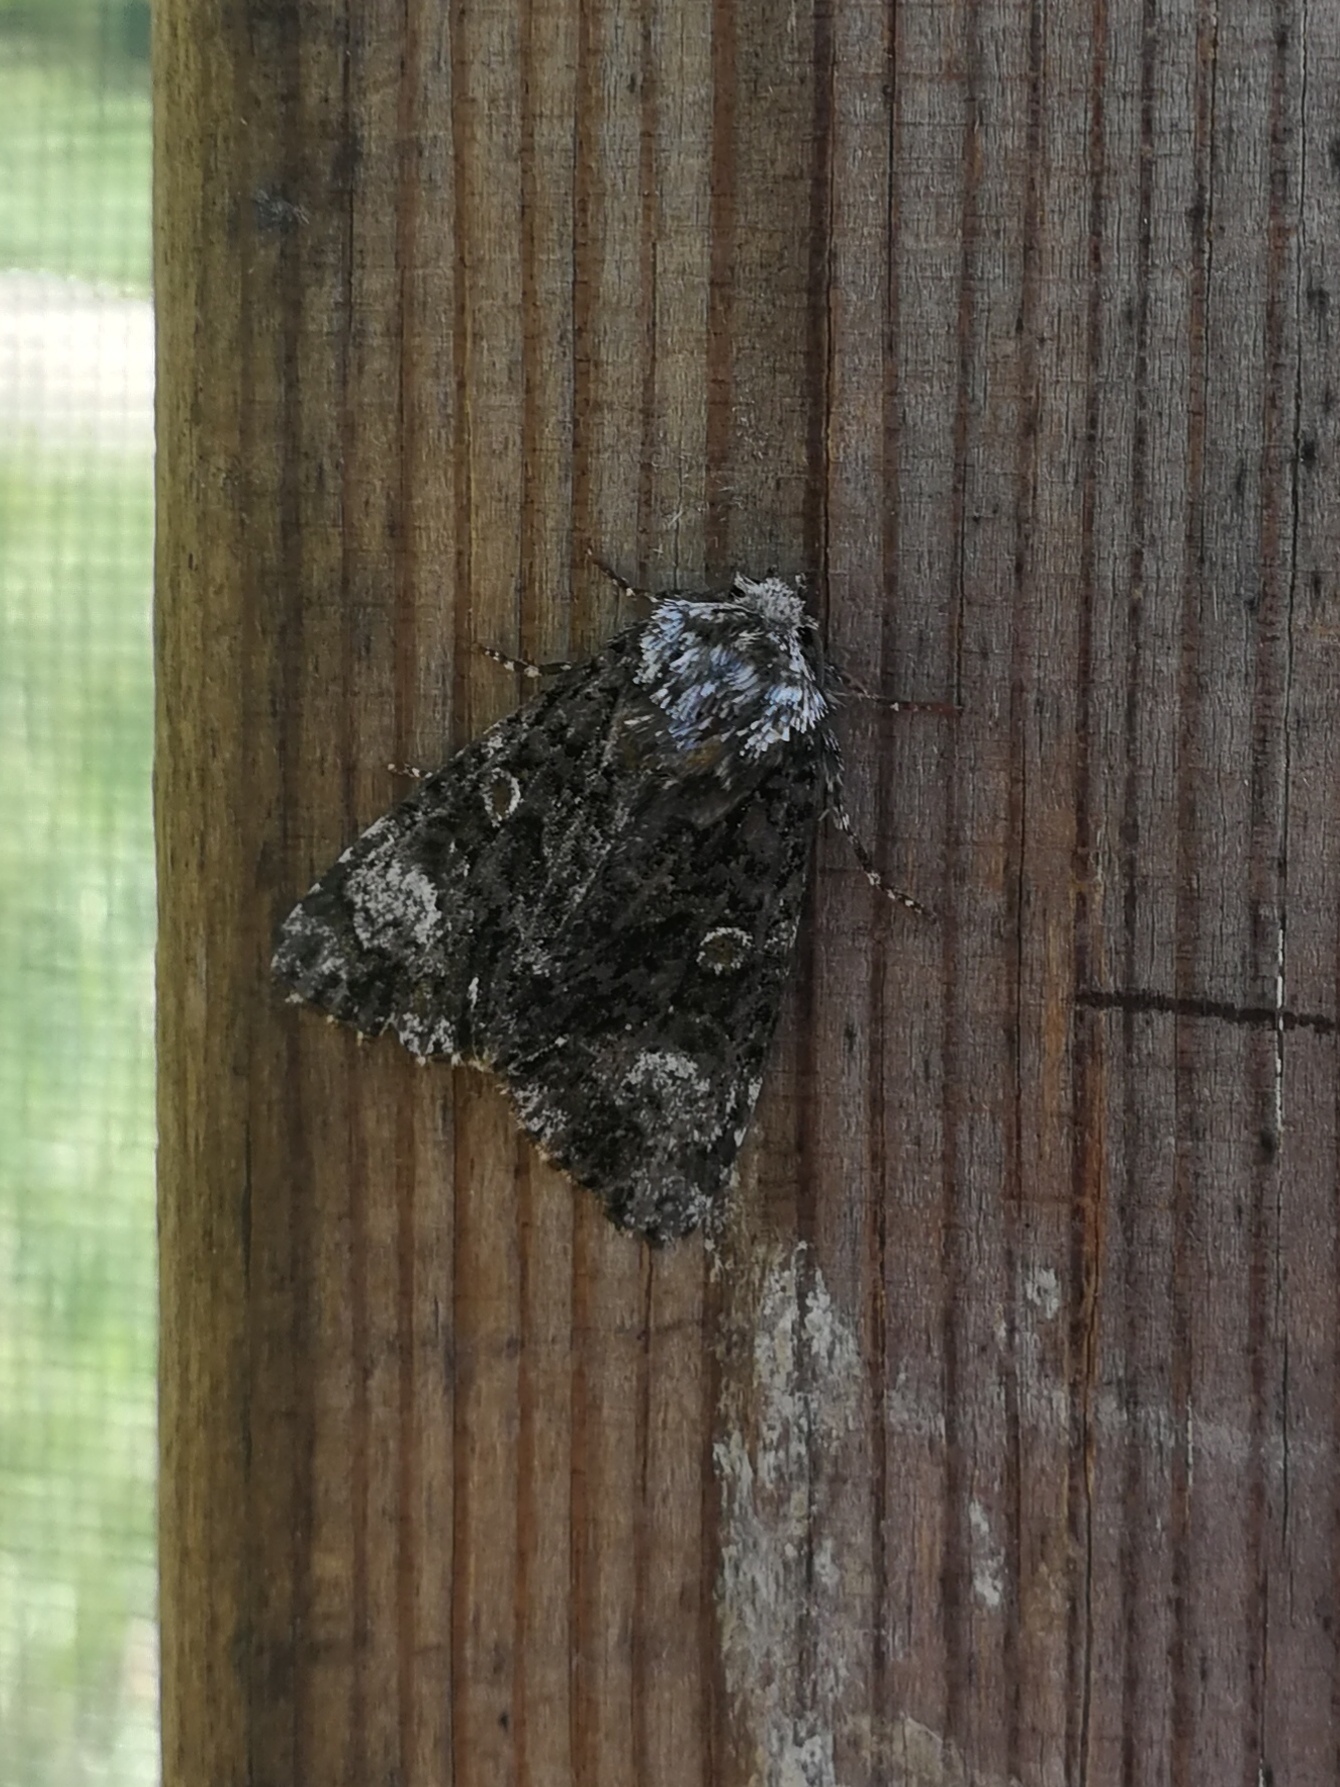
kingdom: Animalia
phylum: Arthropoda
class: Insecta
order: Lepidoptera
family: Noctuidae
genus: Craniophora
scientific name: Craniophora ligustri
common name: Coronet
